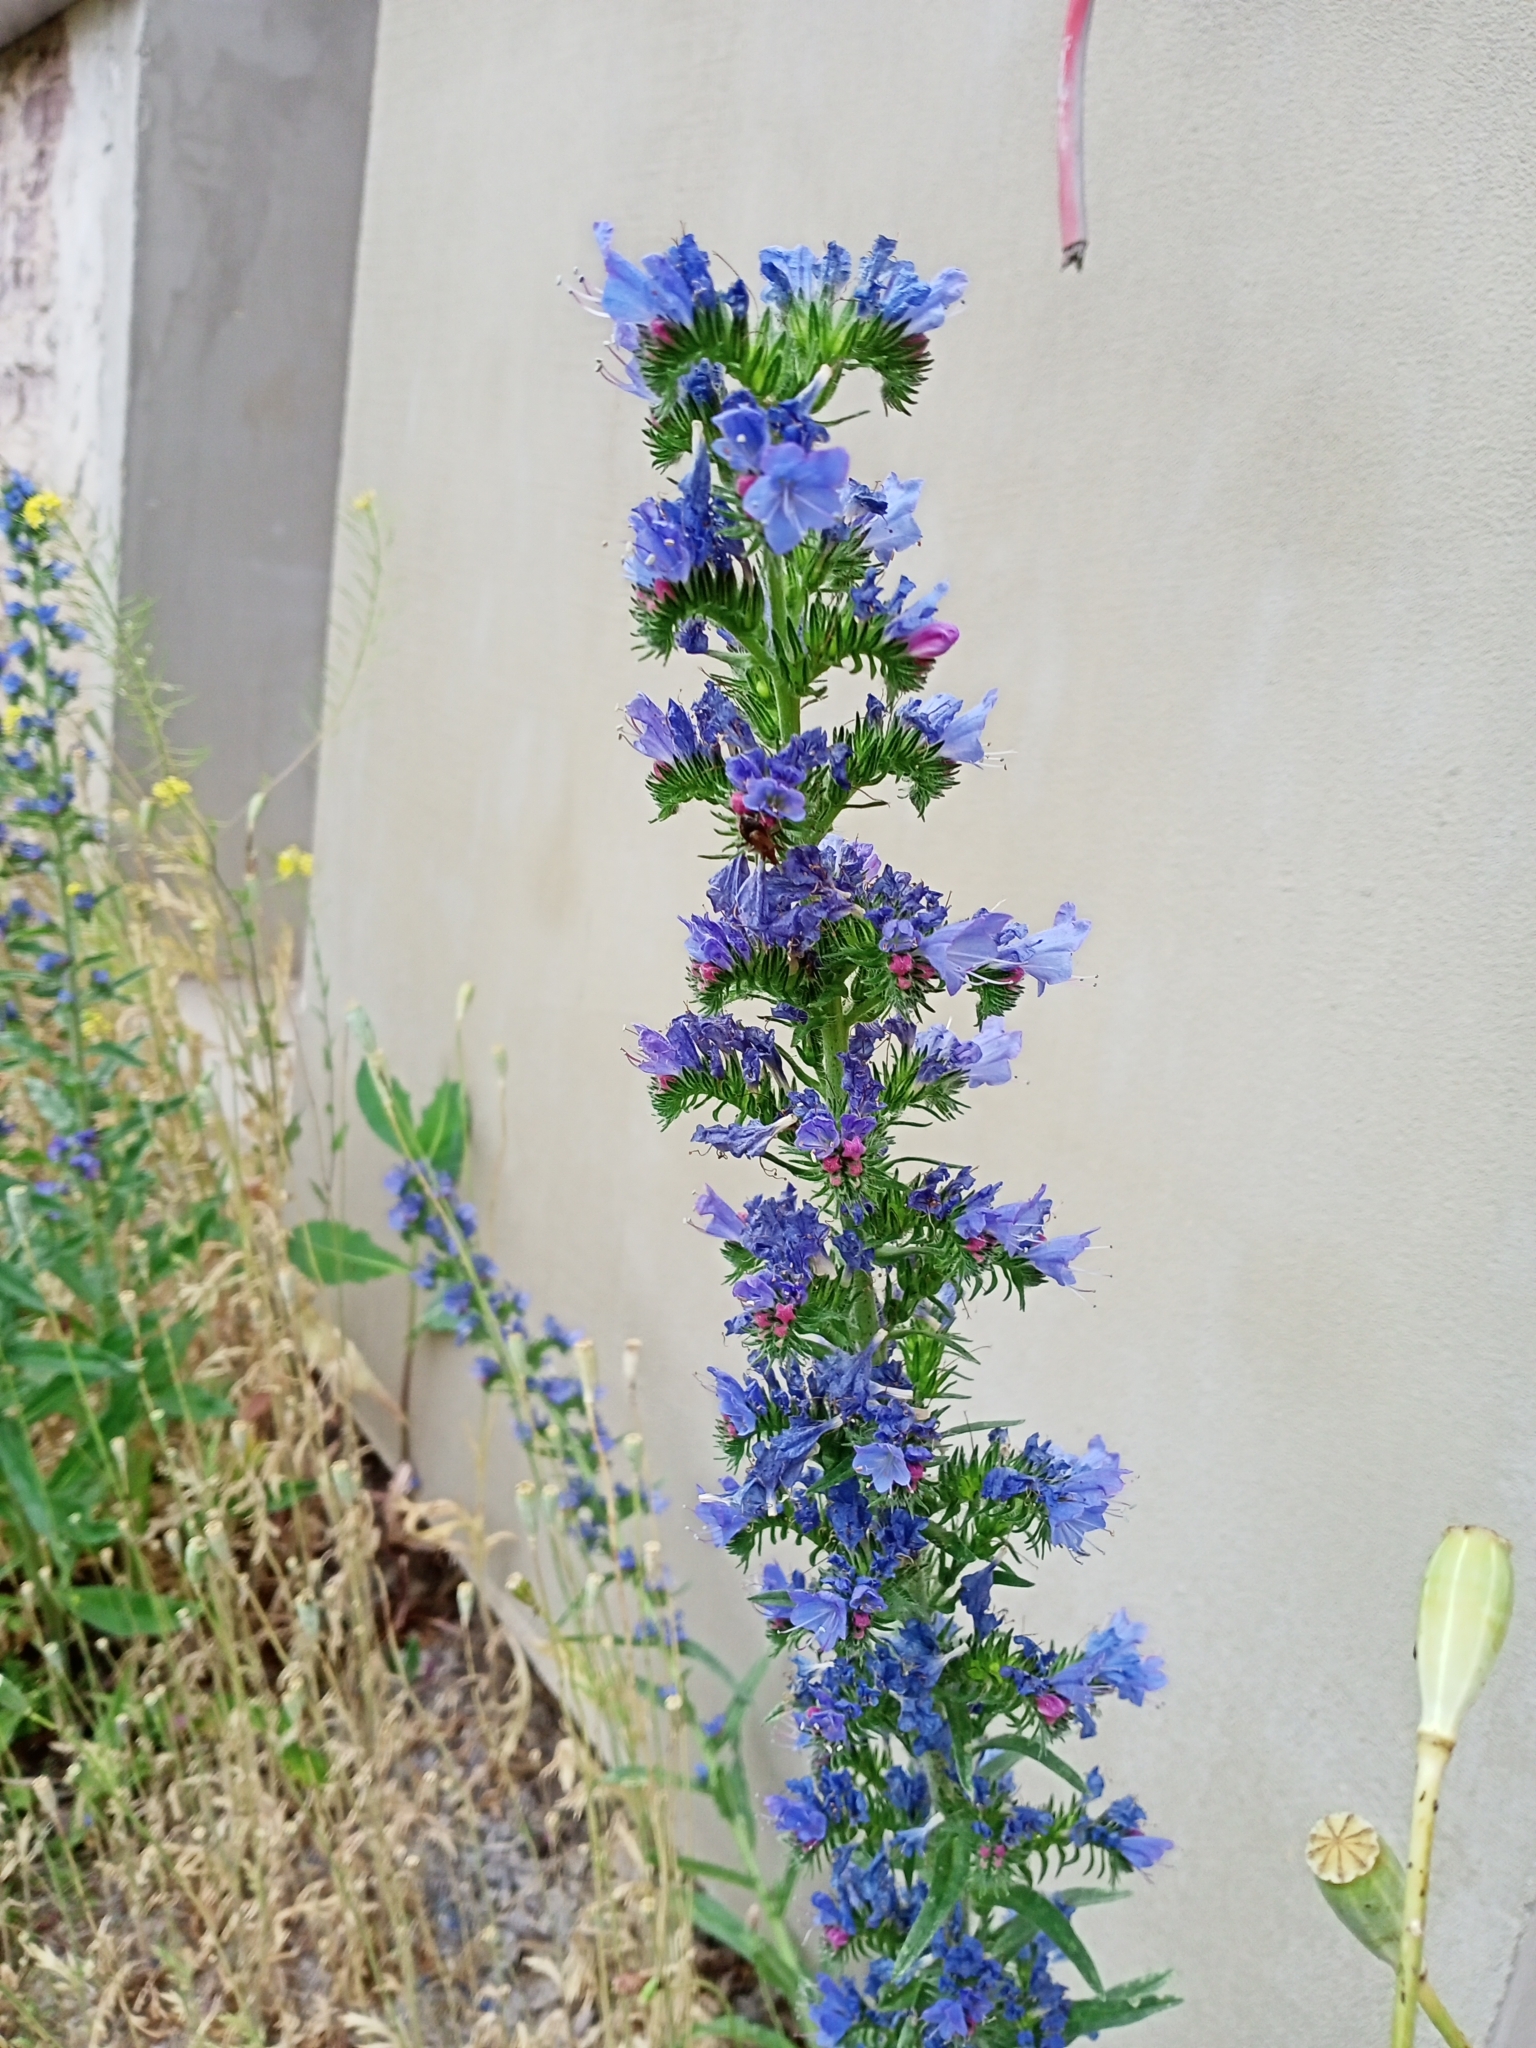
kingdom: Plantae
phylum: Tracheophyta
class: Magnoliopsida
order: Boraginales
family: Boraginaceae
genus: Echium
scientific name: Echium vulgare
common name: Common viper's bugloss
